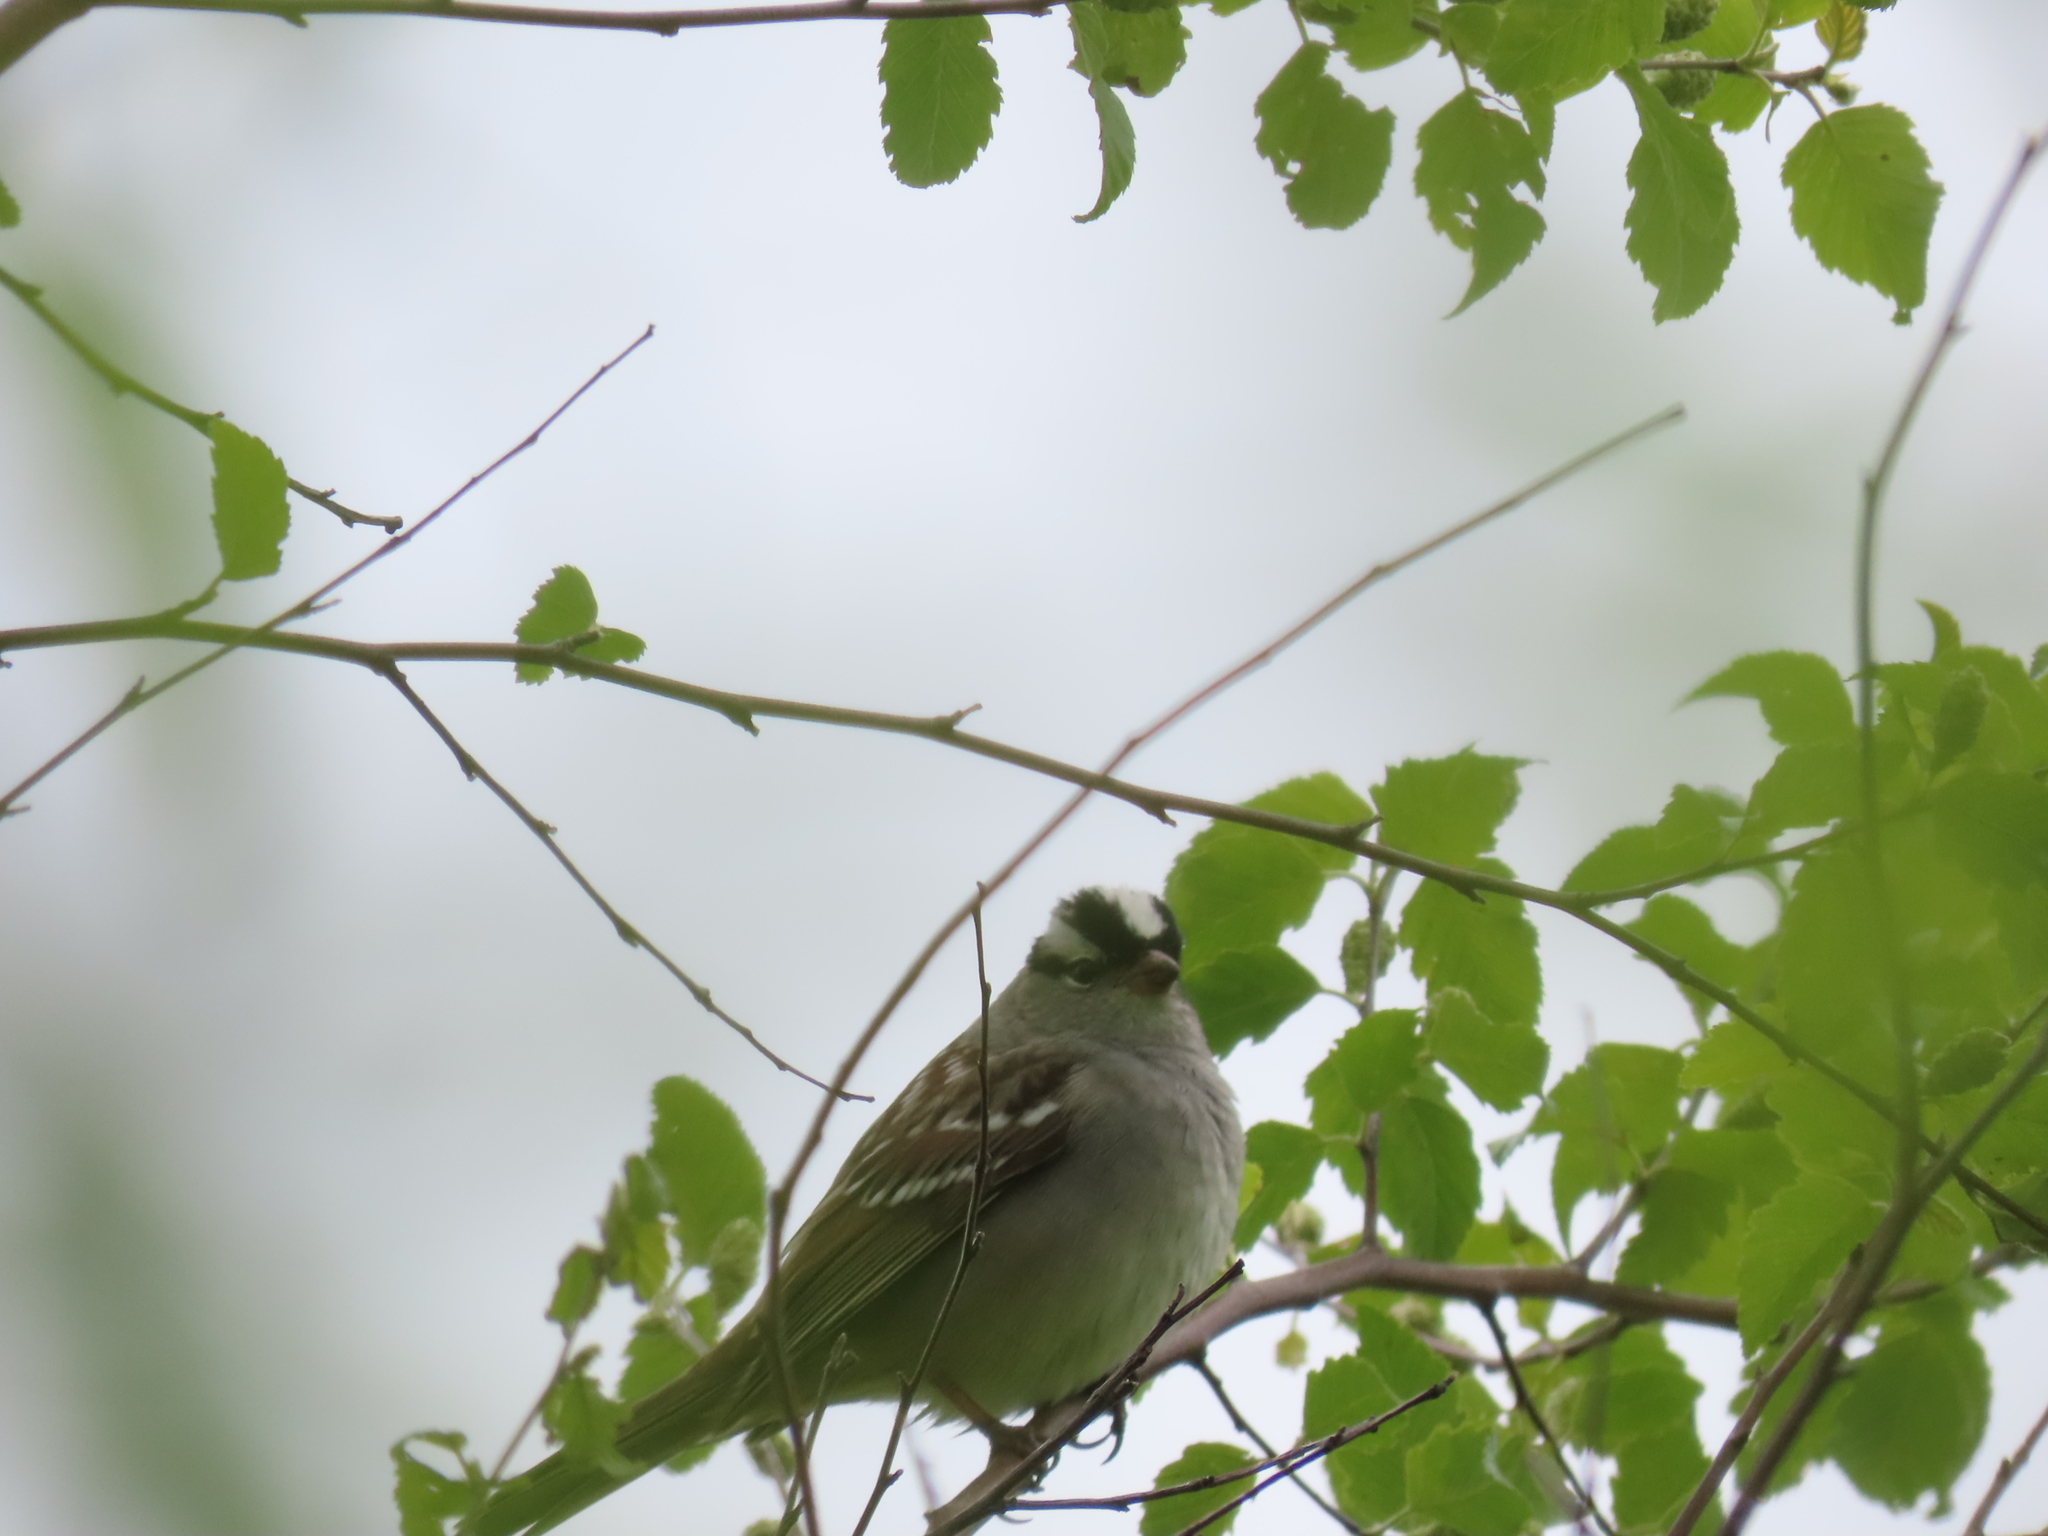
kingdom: Animalia
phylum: Chordata
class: Aves
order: Passeriformes
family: Passerellidae
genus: Zonotrichia
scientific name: Zonotrichia leucophrys
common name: White-crowned sparrow
